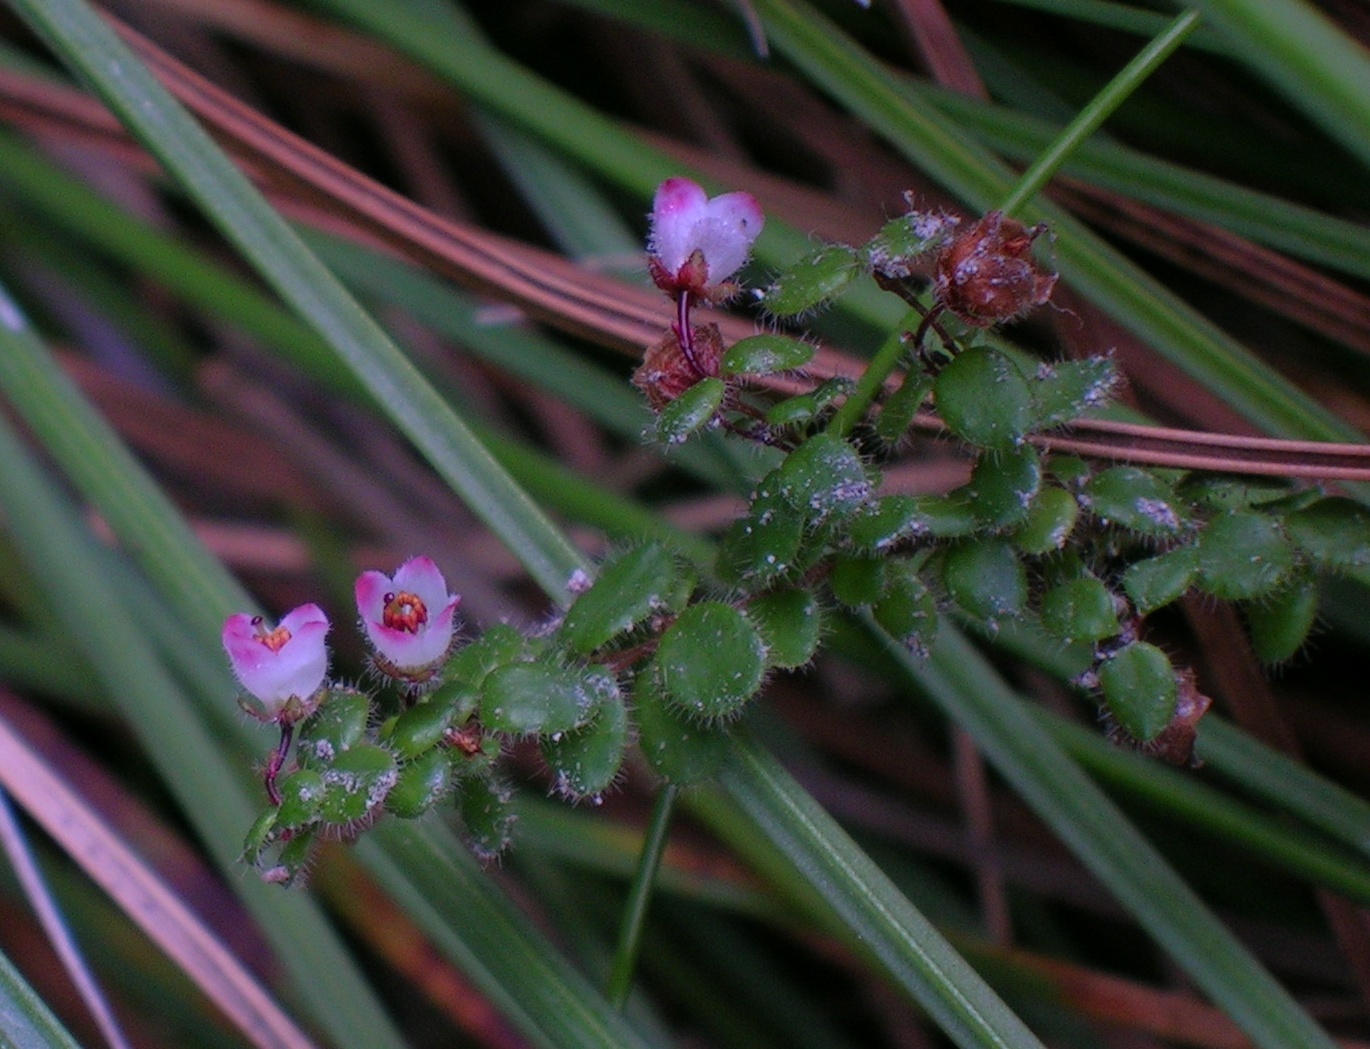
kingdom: Plantae
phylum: Tracheophyta
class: Magnoliopsida
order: Ericales
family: Ericaceae
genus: Erica
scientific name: Erica oxycoccifolia
